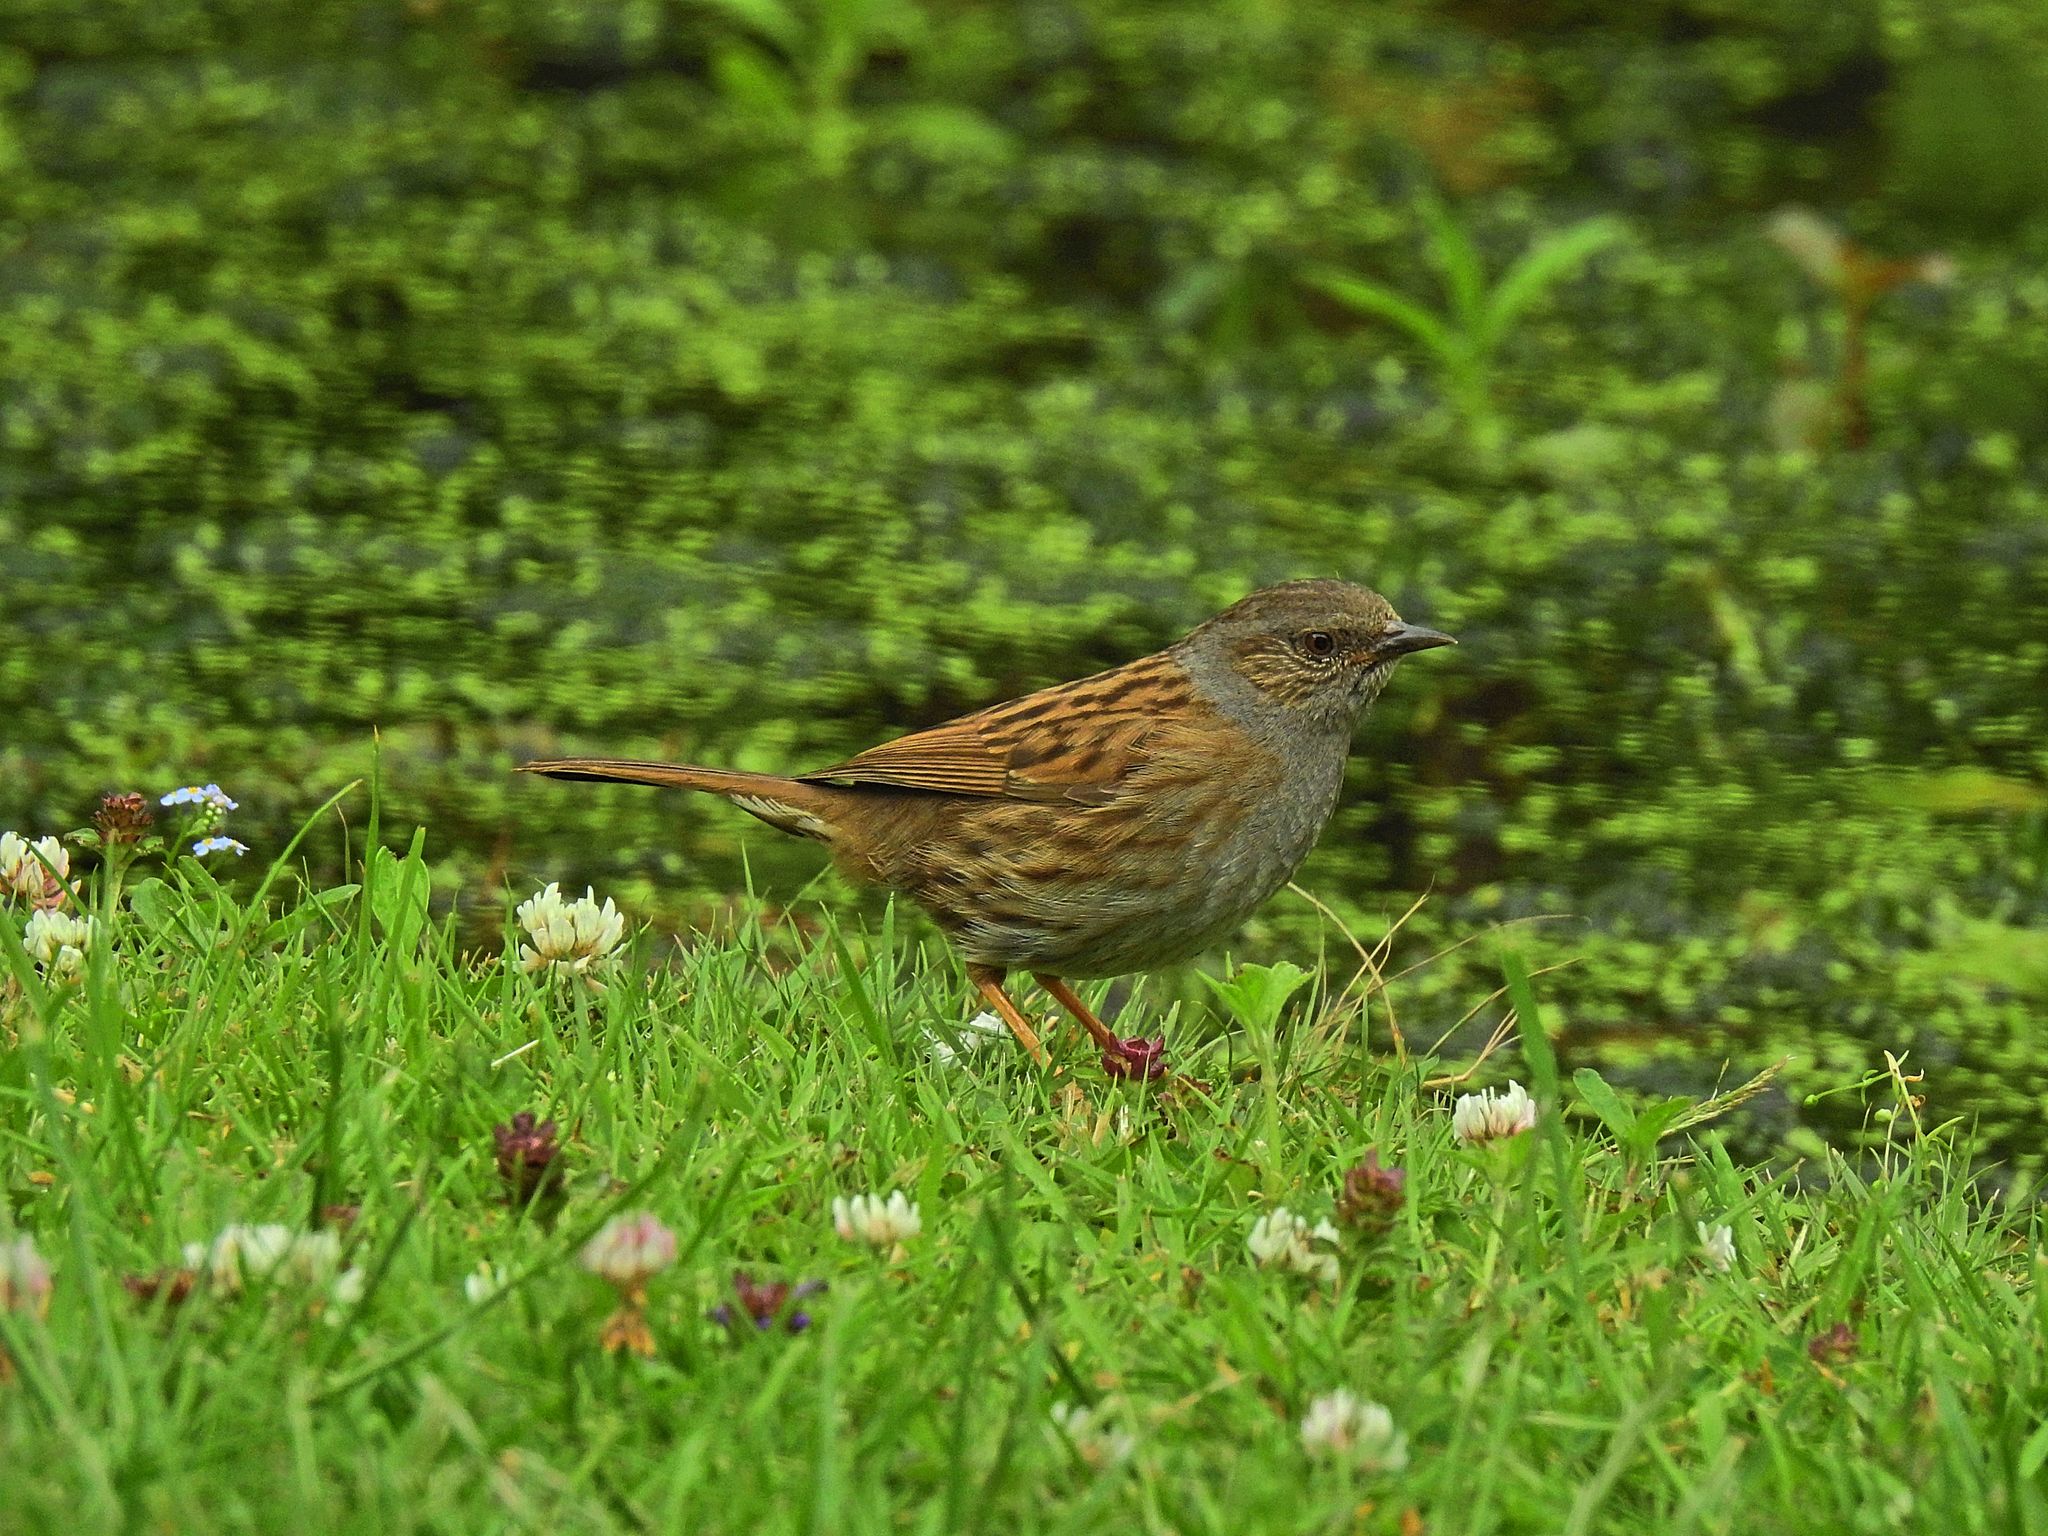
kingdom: Animalia
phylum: Chordata
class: Aves
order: Passeriformes
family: Prunellidae
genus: Prunella
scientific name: Prunella modularis
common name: Dunnock
